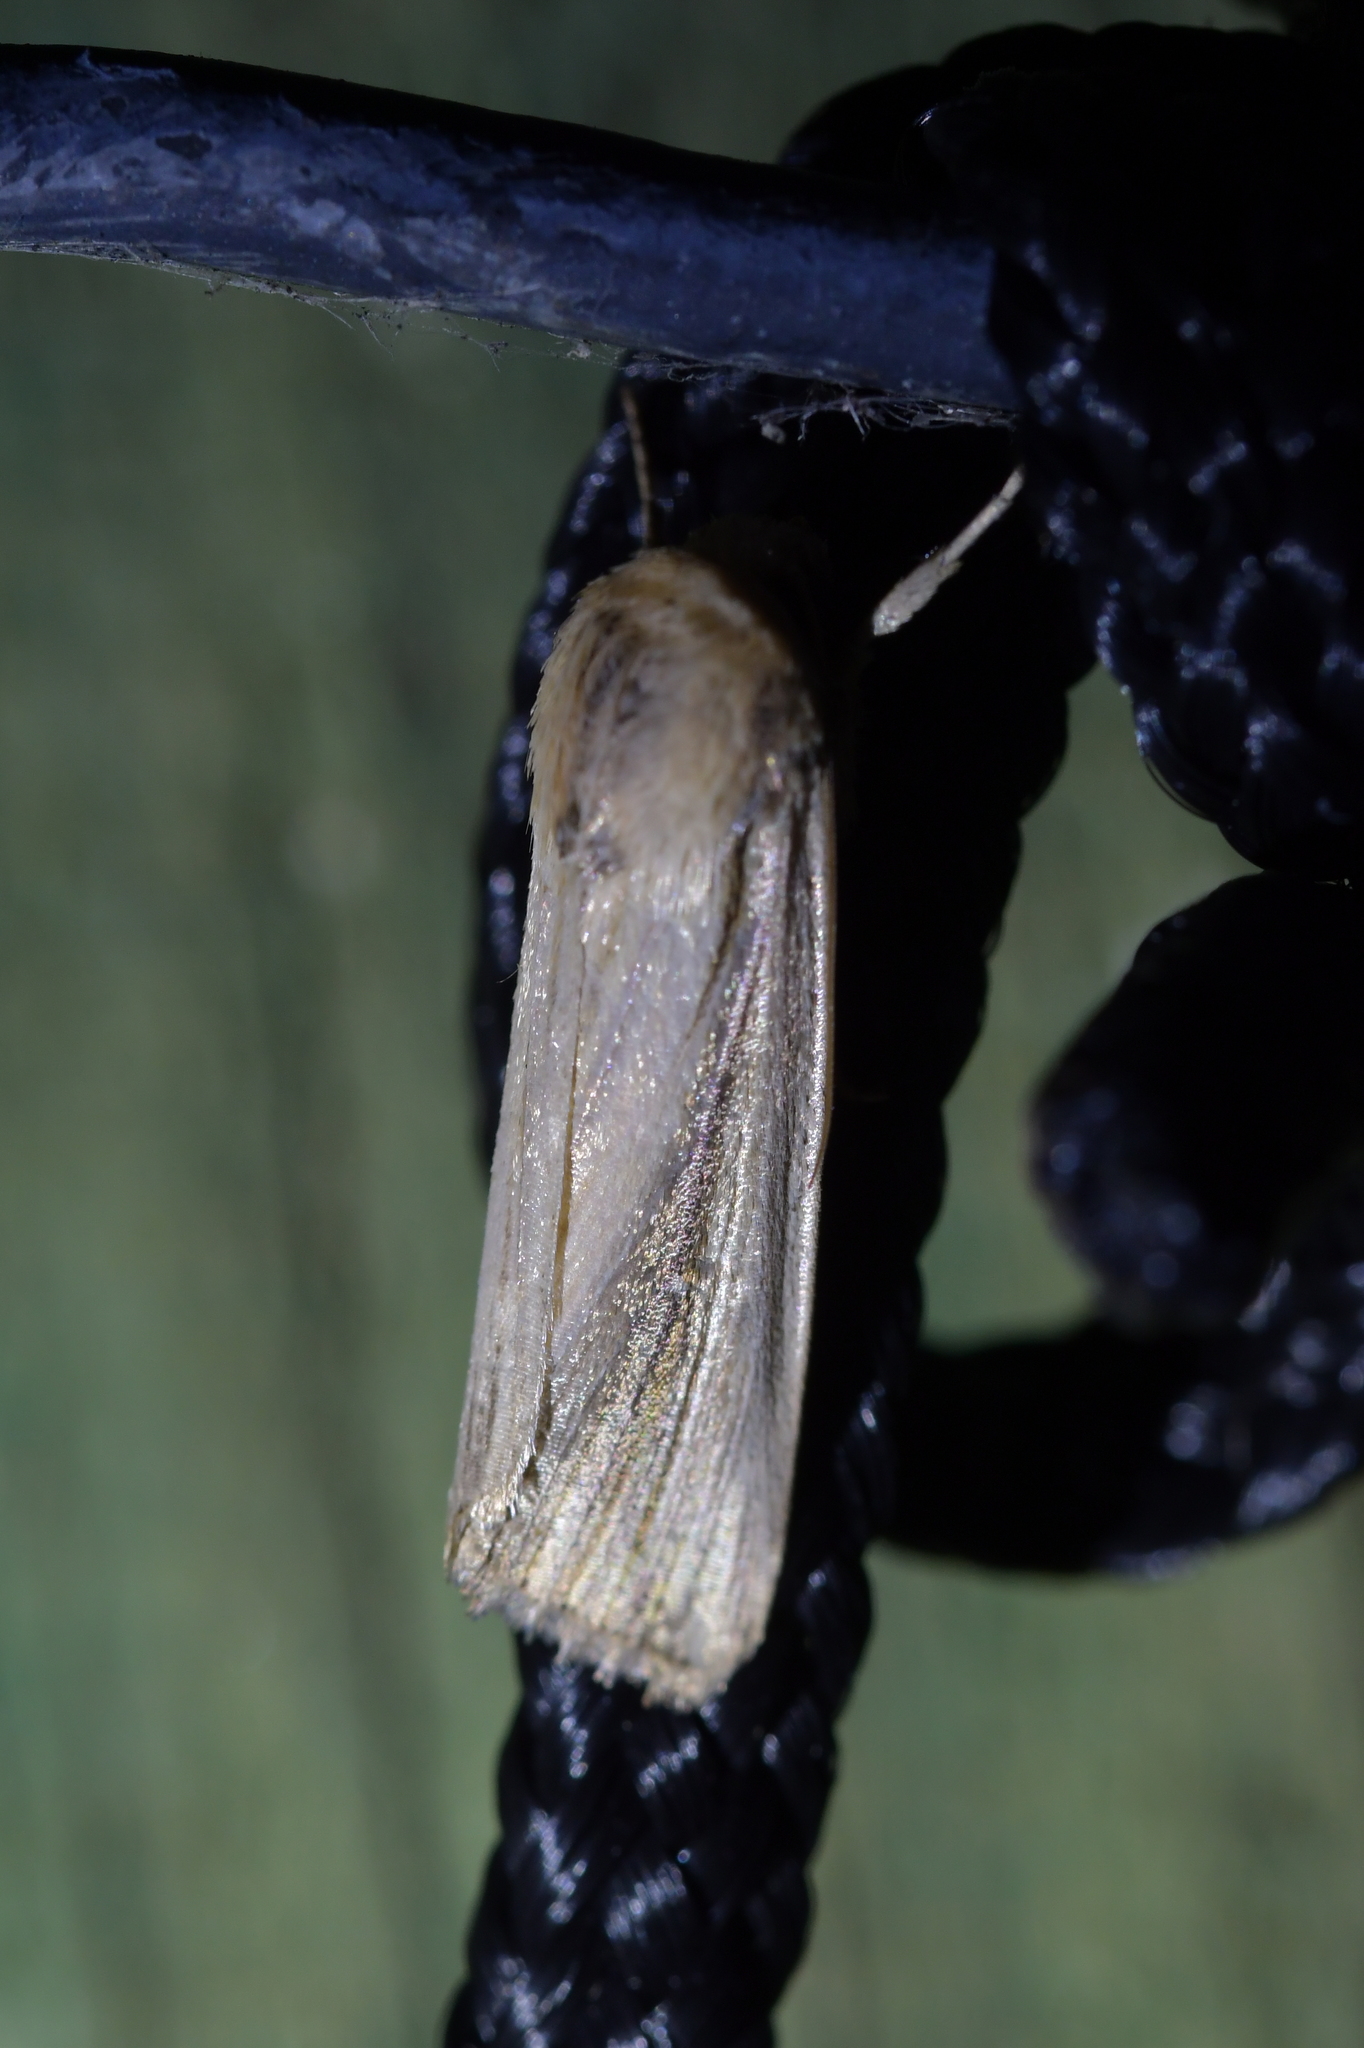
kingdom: Animalia
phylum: Arthropoda
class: Insecta
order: Lepidoptera
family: Noctuidae
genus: Leucania
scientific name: Leucania stenographa
